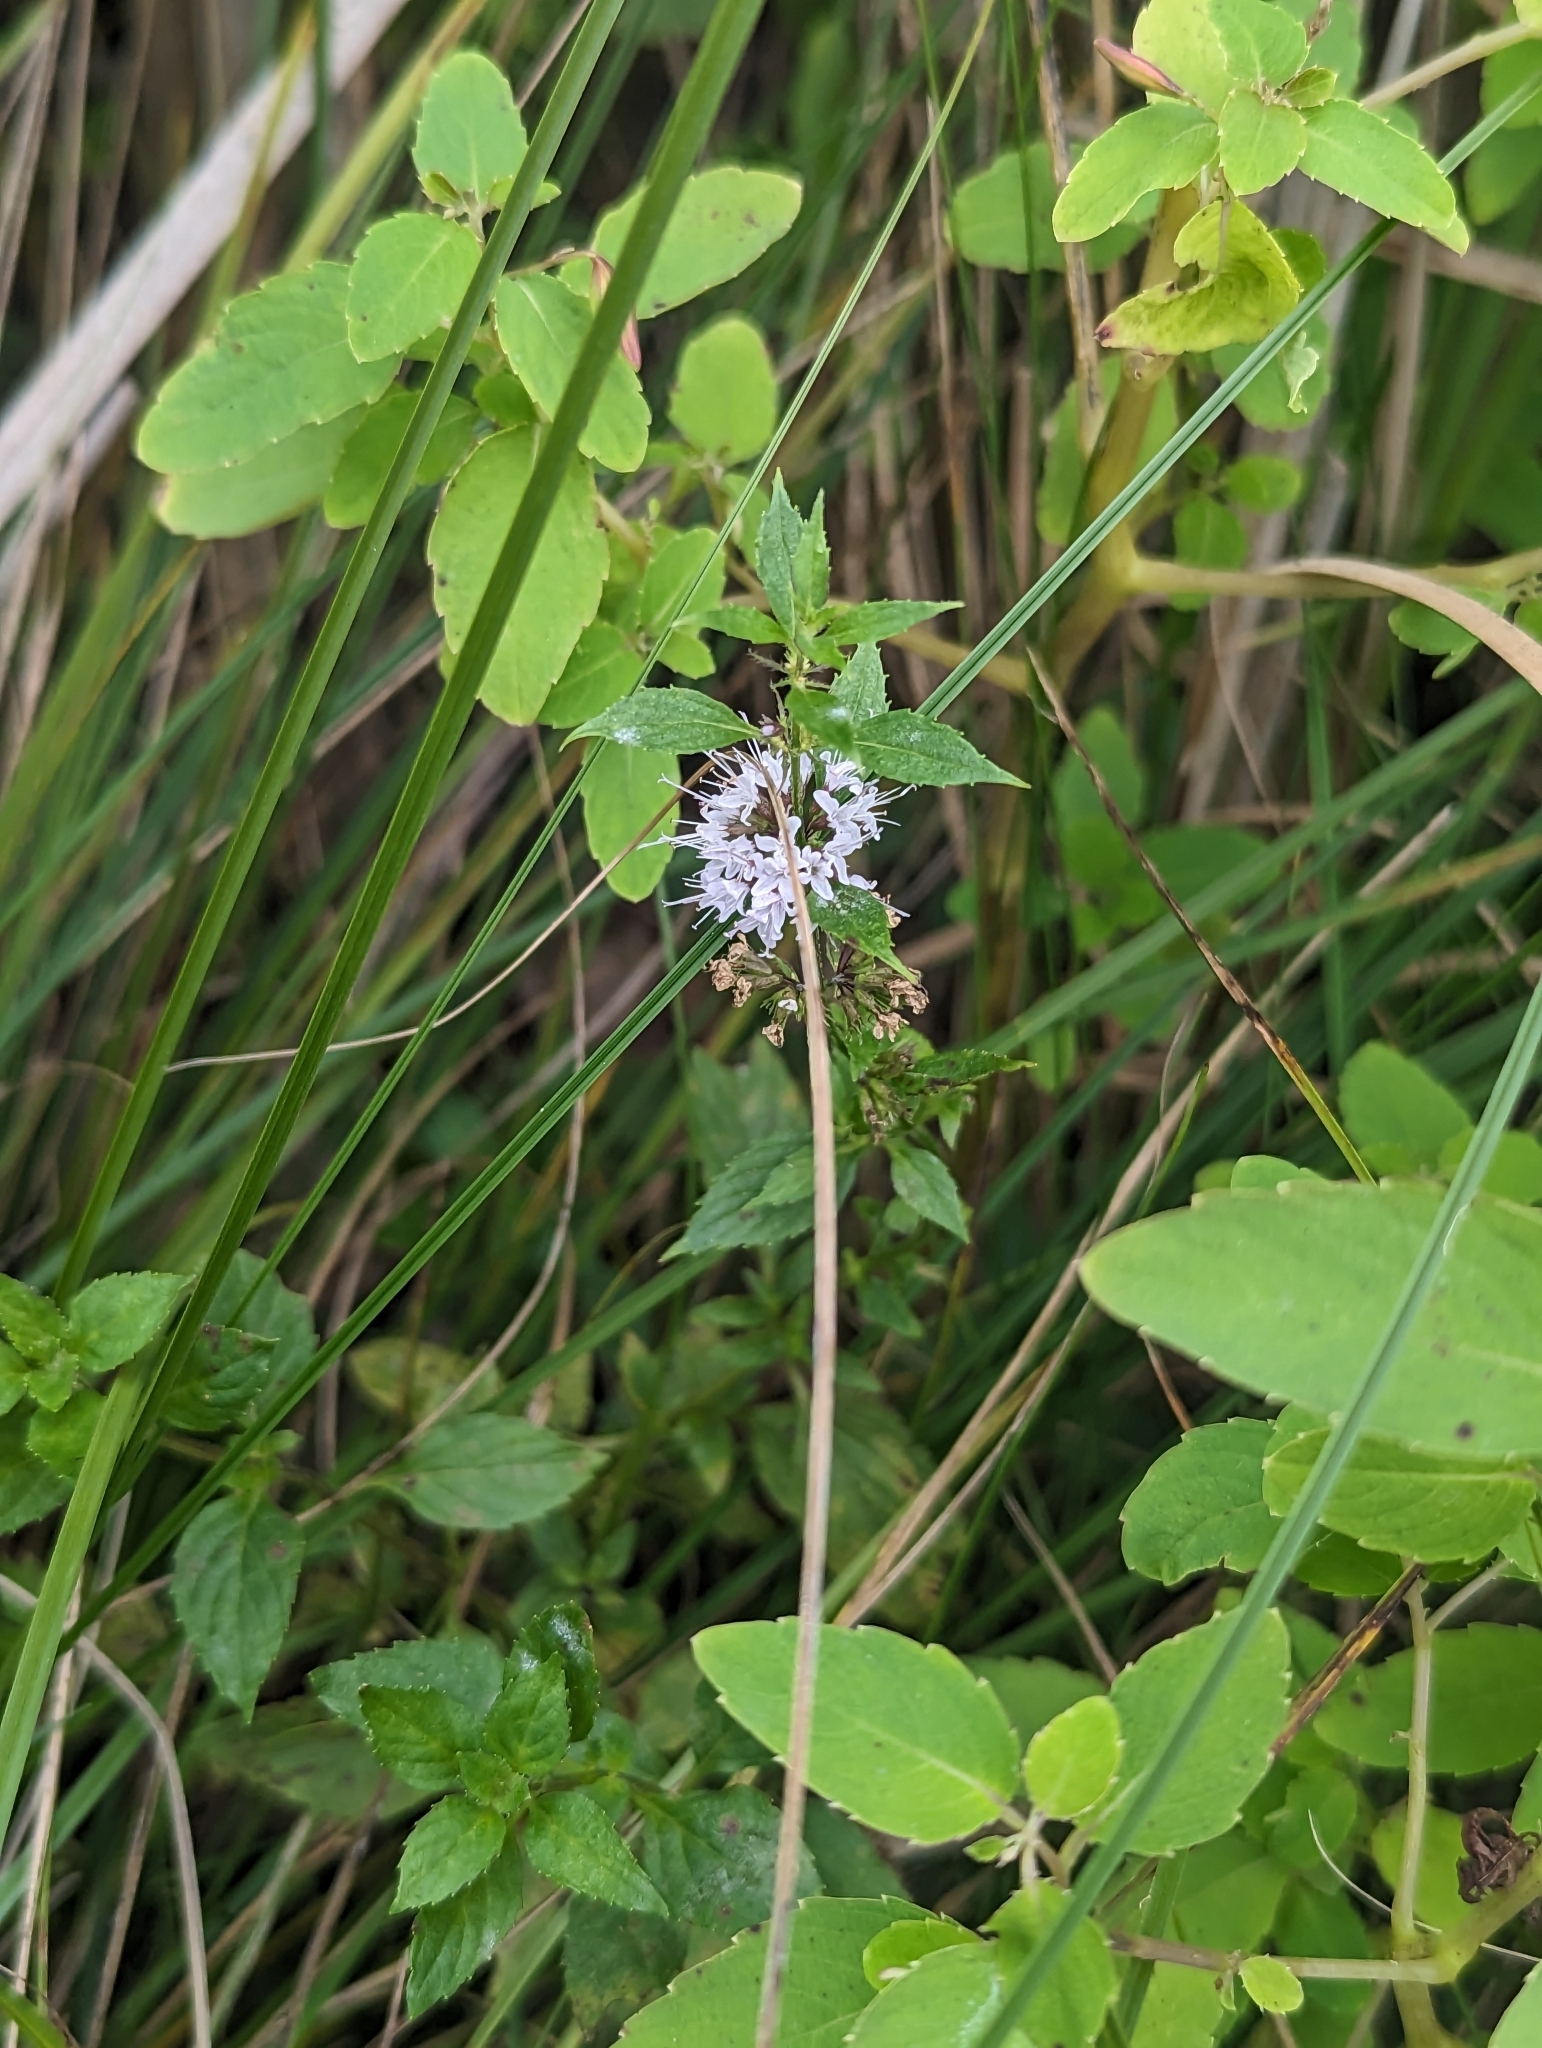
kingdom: Plantae
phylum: Tracheophyta
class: Magnoliopsida
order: Lamiales
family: Lamiaceae
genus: Mentha
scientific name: Mentha canadensis
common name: American corn mint
